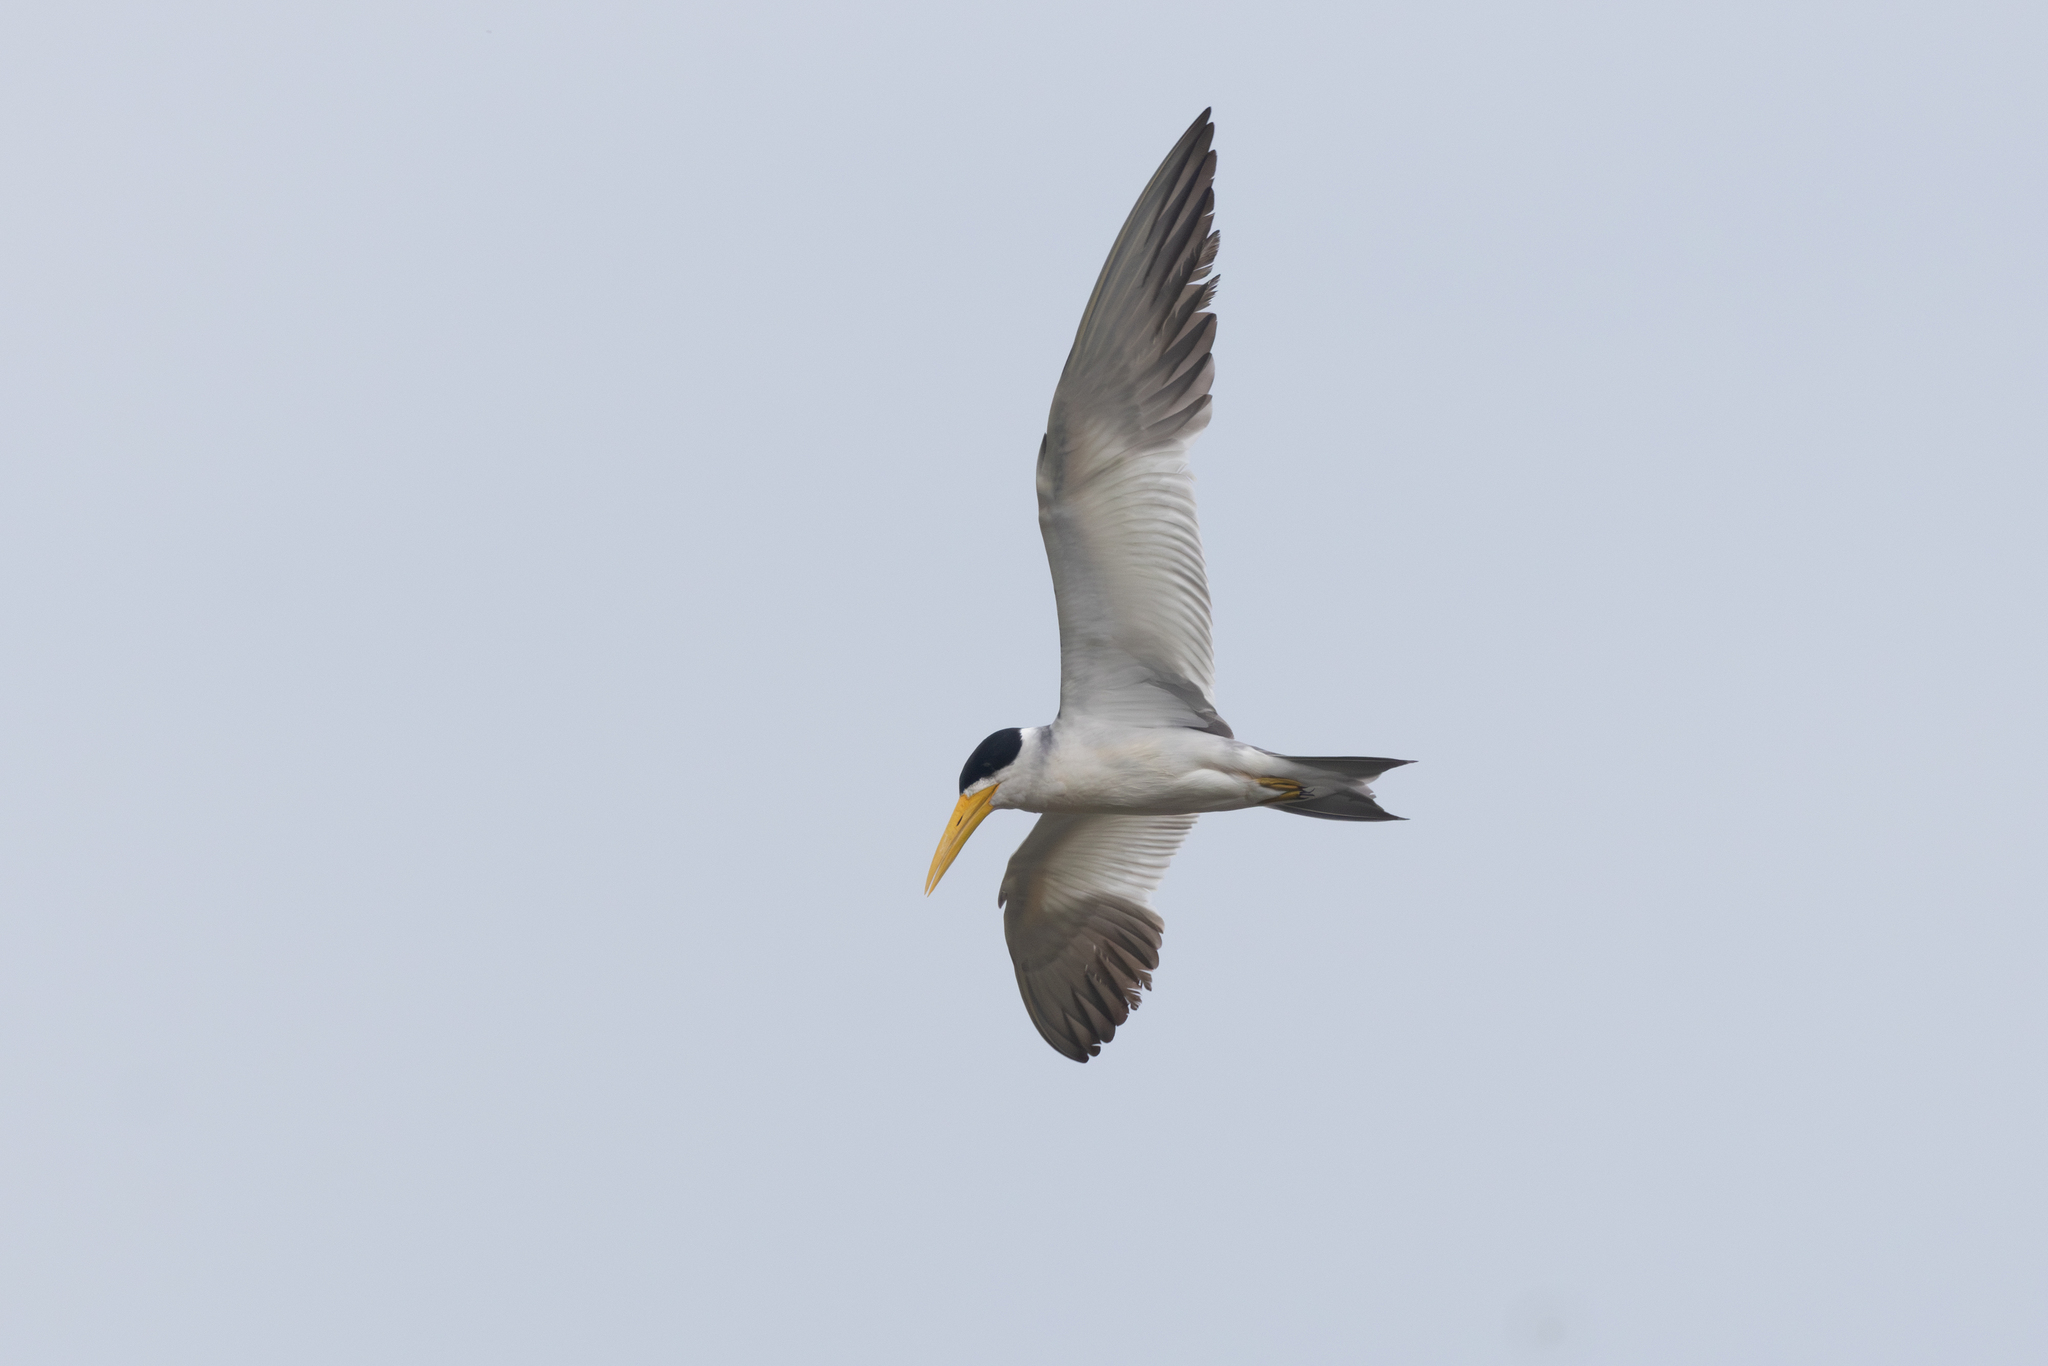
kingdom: Animalia
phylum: Chordata
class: Aves
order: Charadriiformes
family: Laridae
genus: Phaetusa
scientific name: Phaetusa simplex
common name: Large-billed tern
